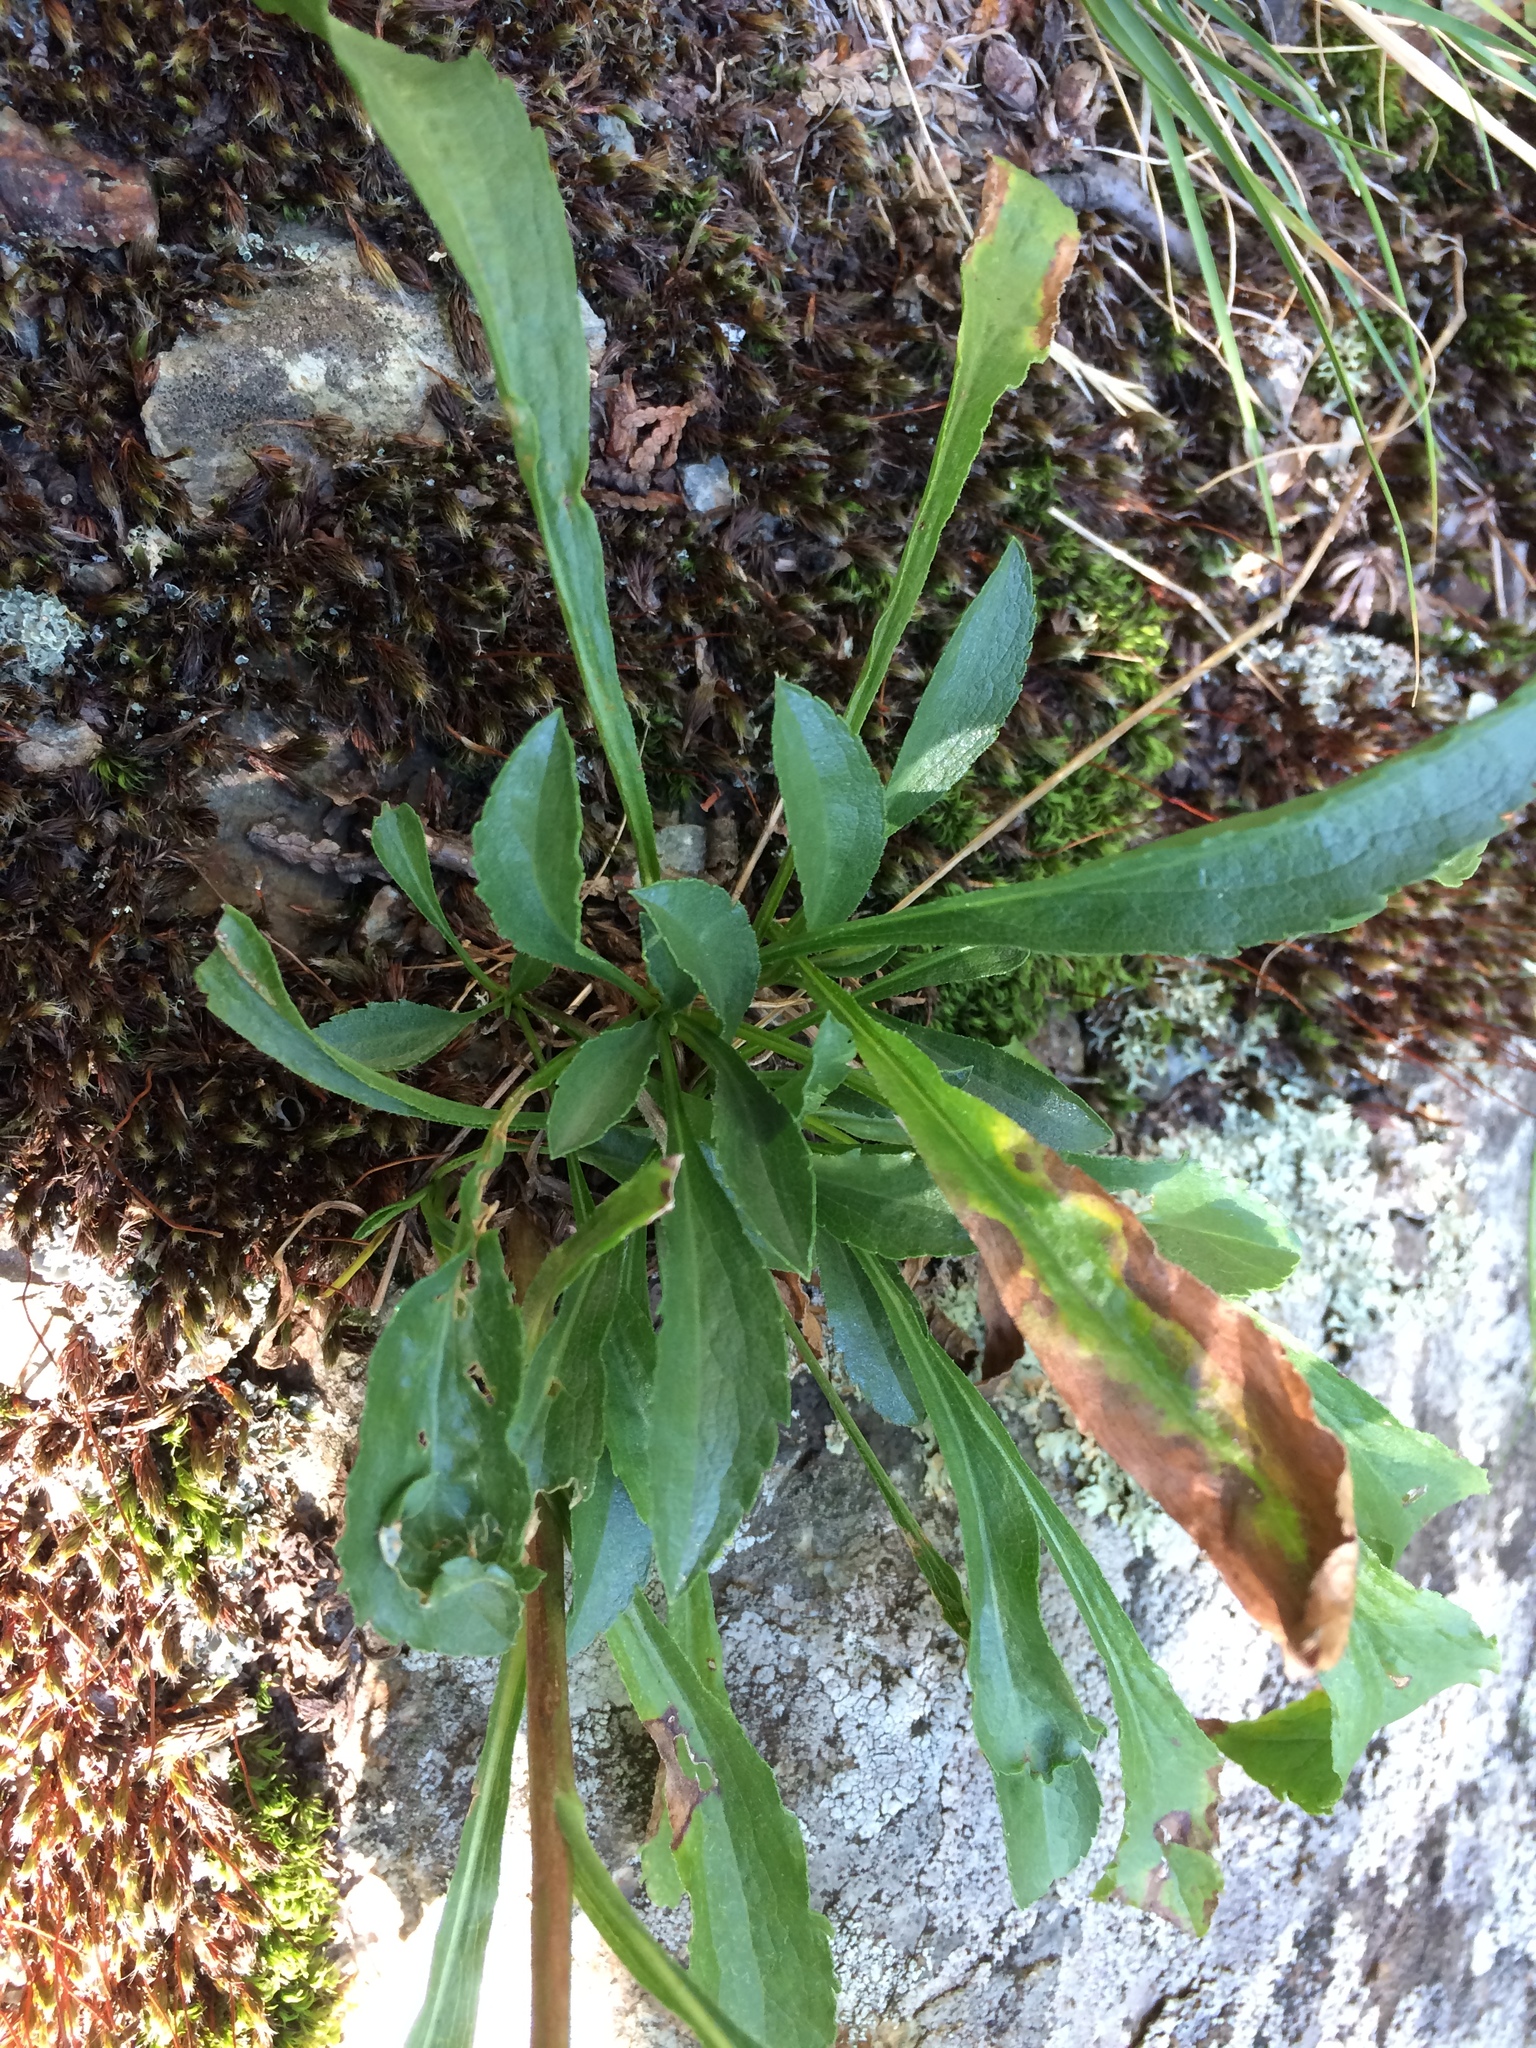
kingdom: Plantae
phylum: Tracheophyta
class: Magnoliopsida
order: Asterales
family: Asteraceae
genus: Solidago
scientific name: Solidago randii
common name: Rand's goldenrod
